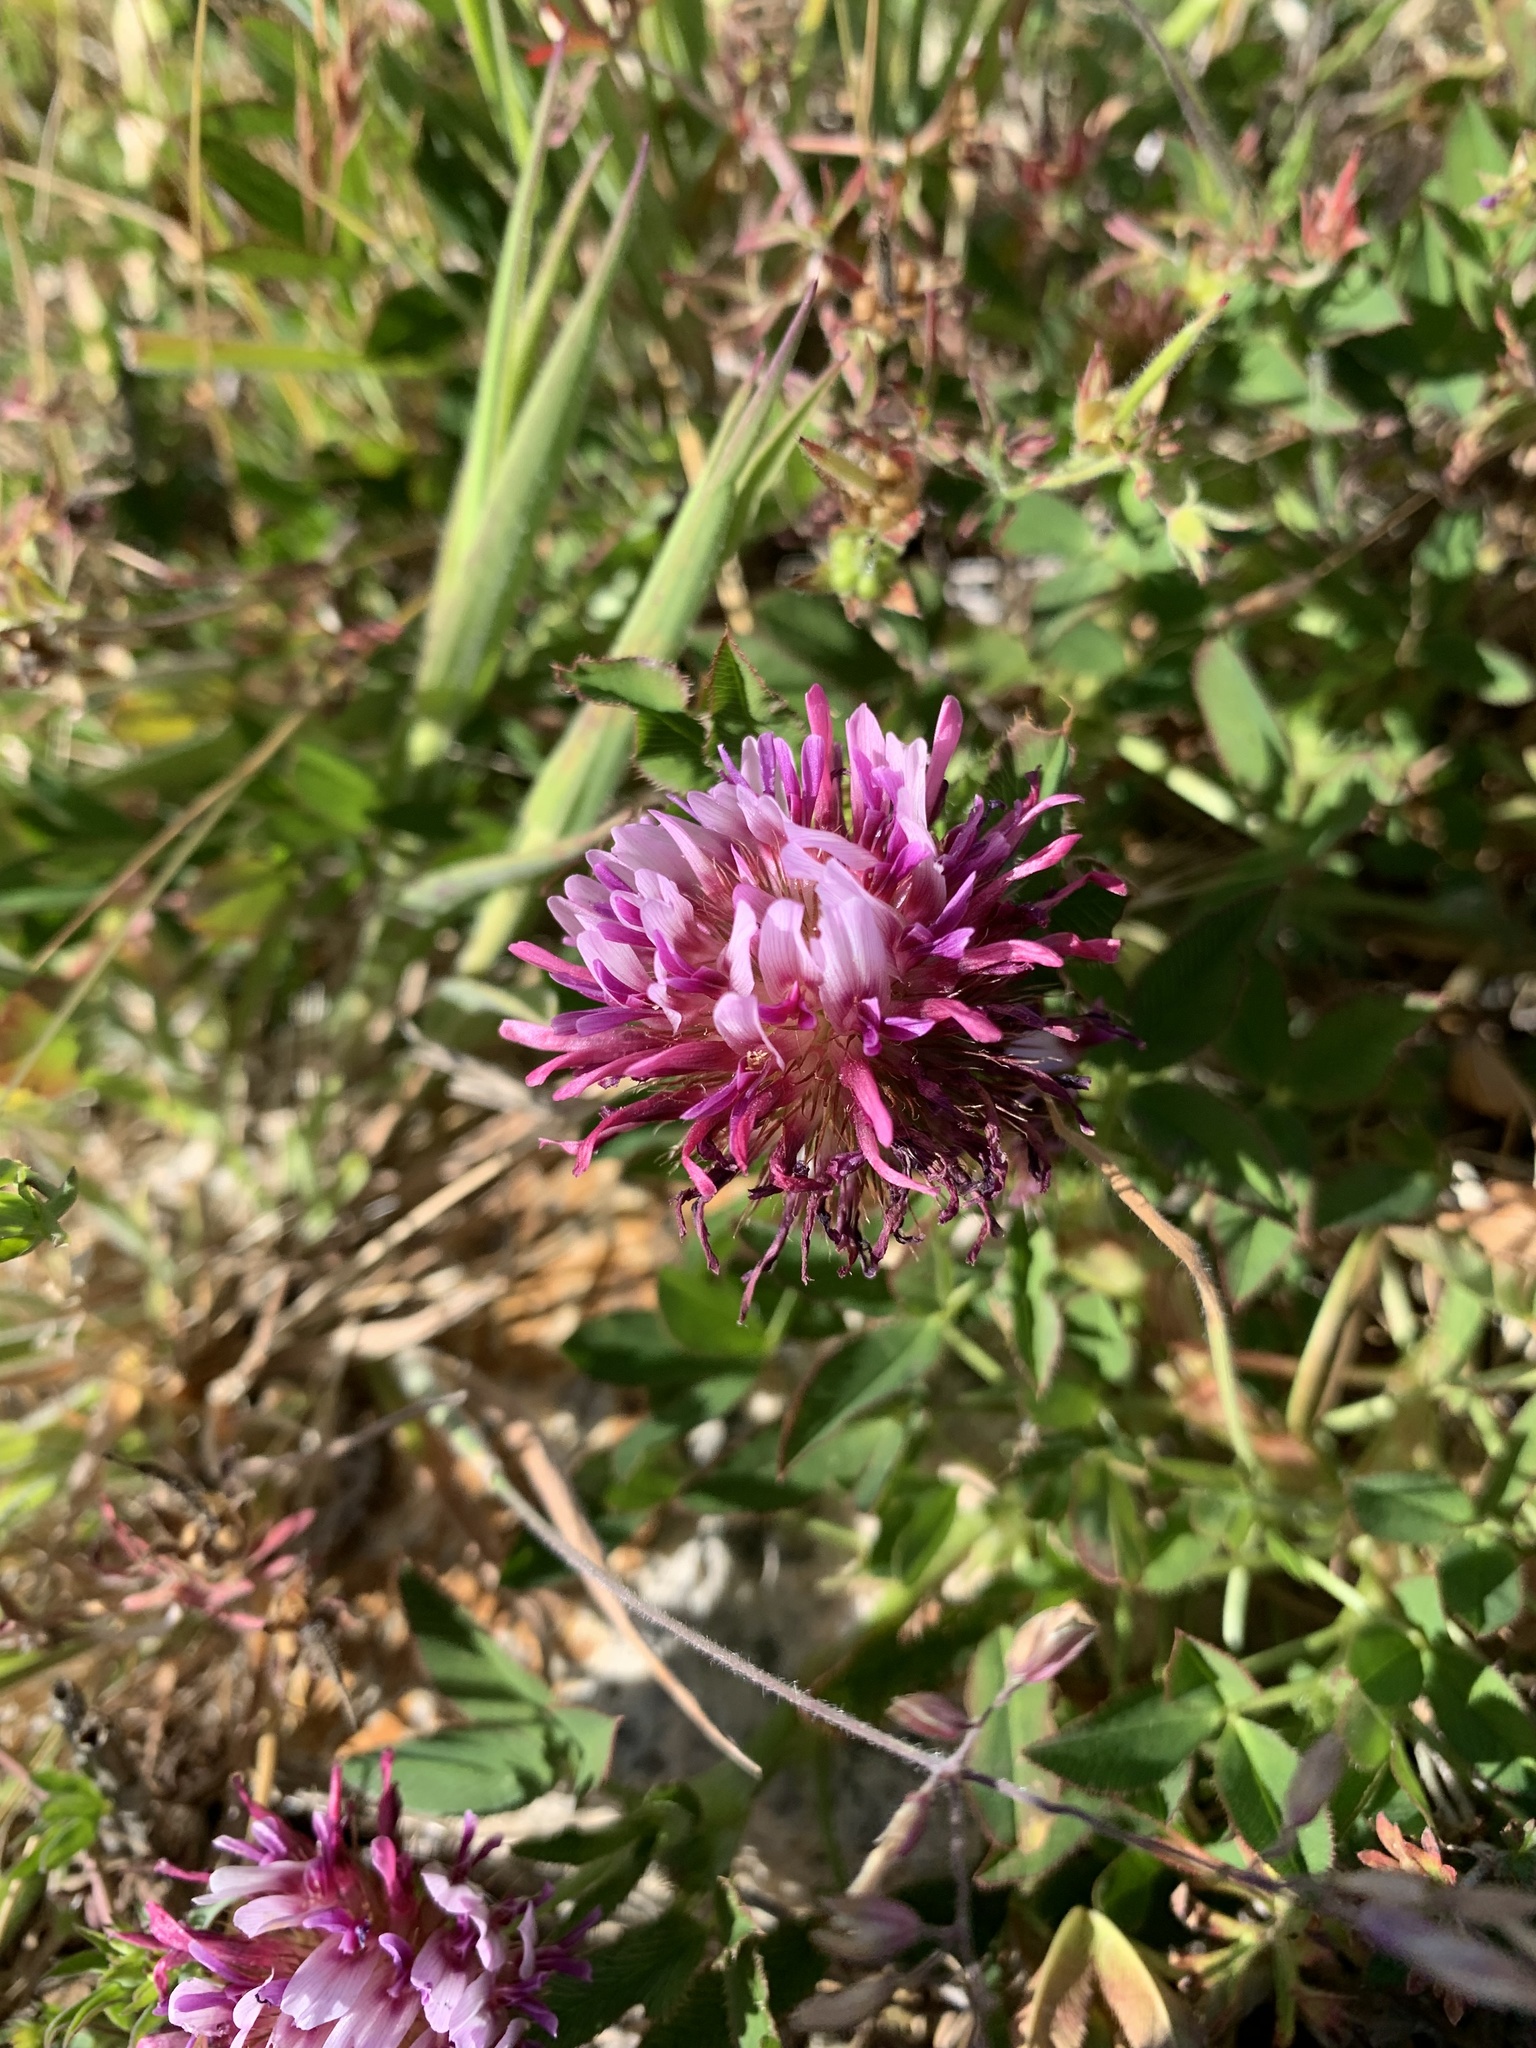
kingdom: Plantae
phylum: Tracheophyta
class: Magnoliopsida
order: Fabales
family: Fabaceae
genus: Trifolium
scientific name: Trifolium wormskioldii
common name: Springbank clover
